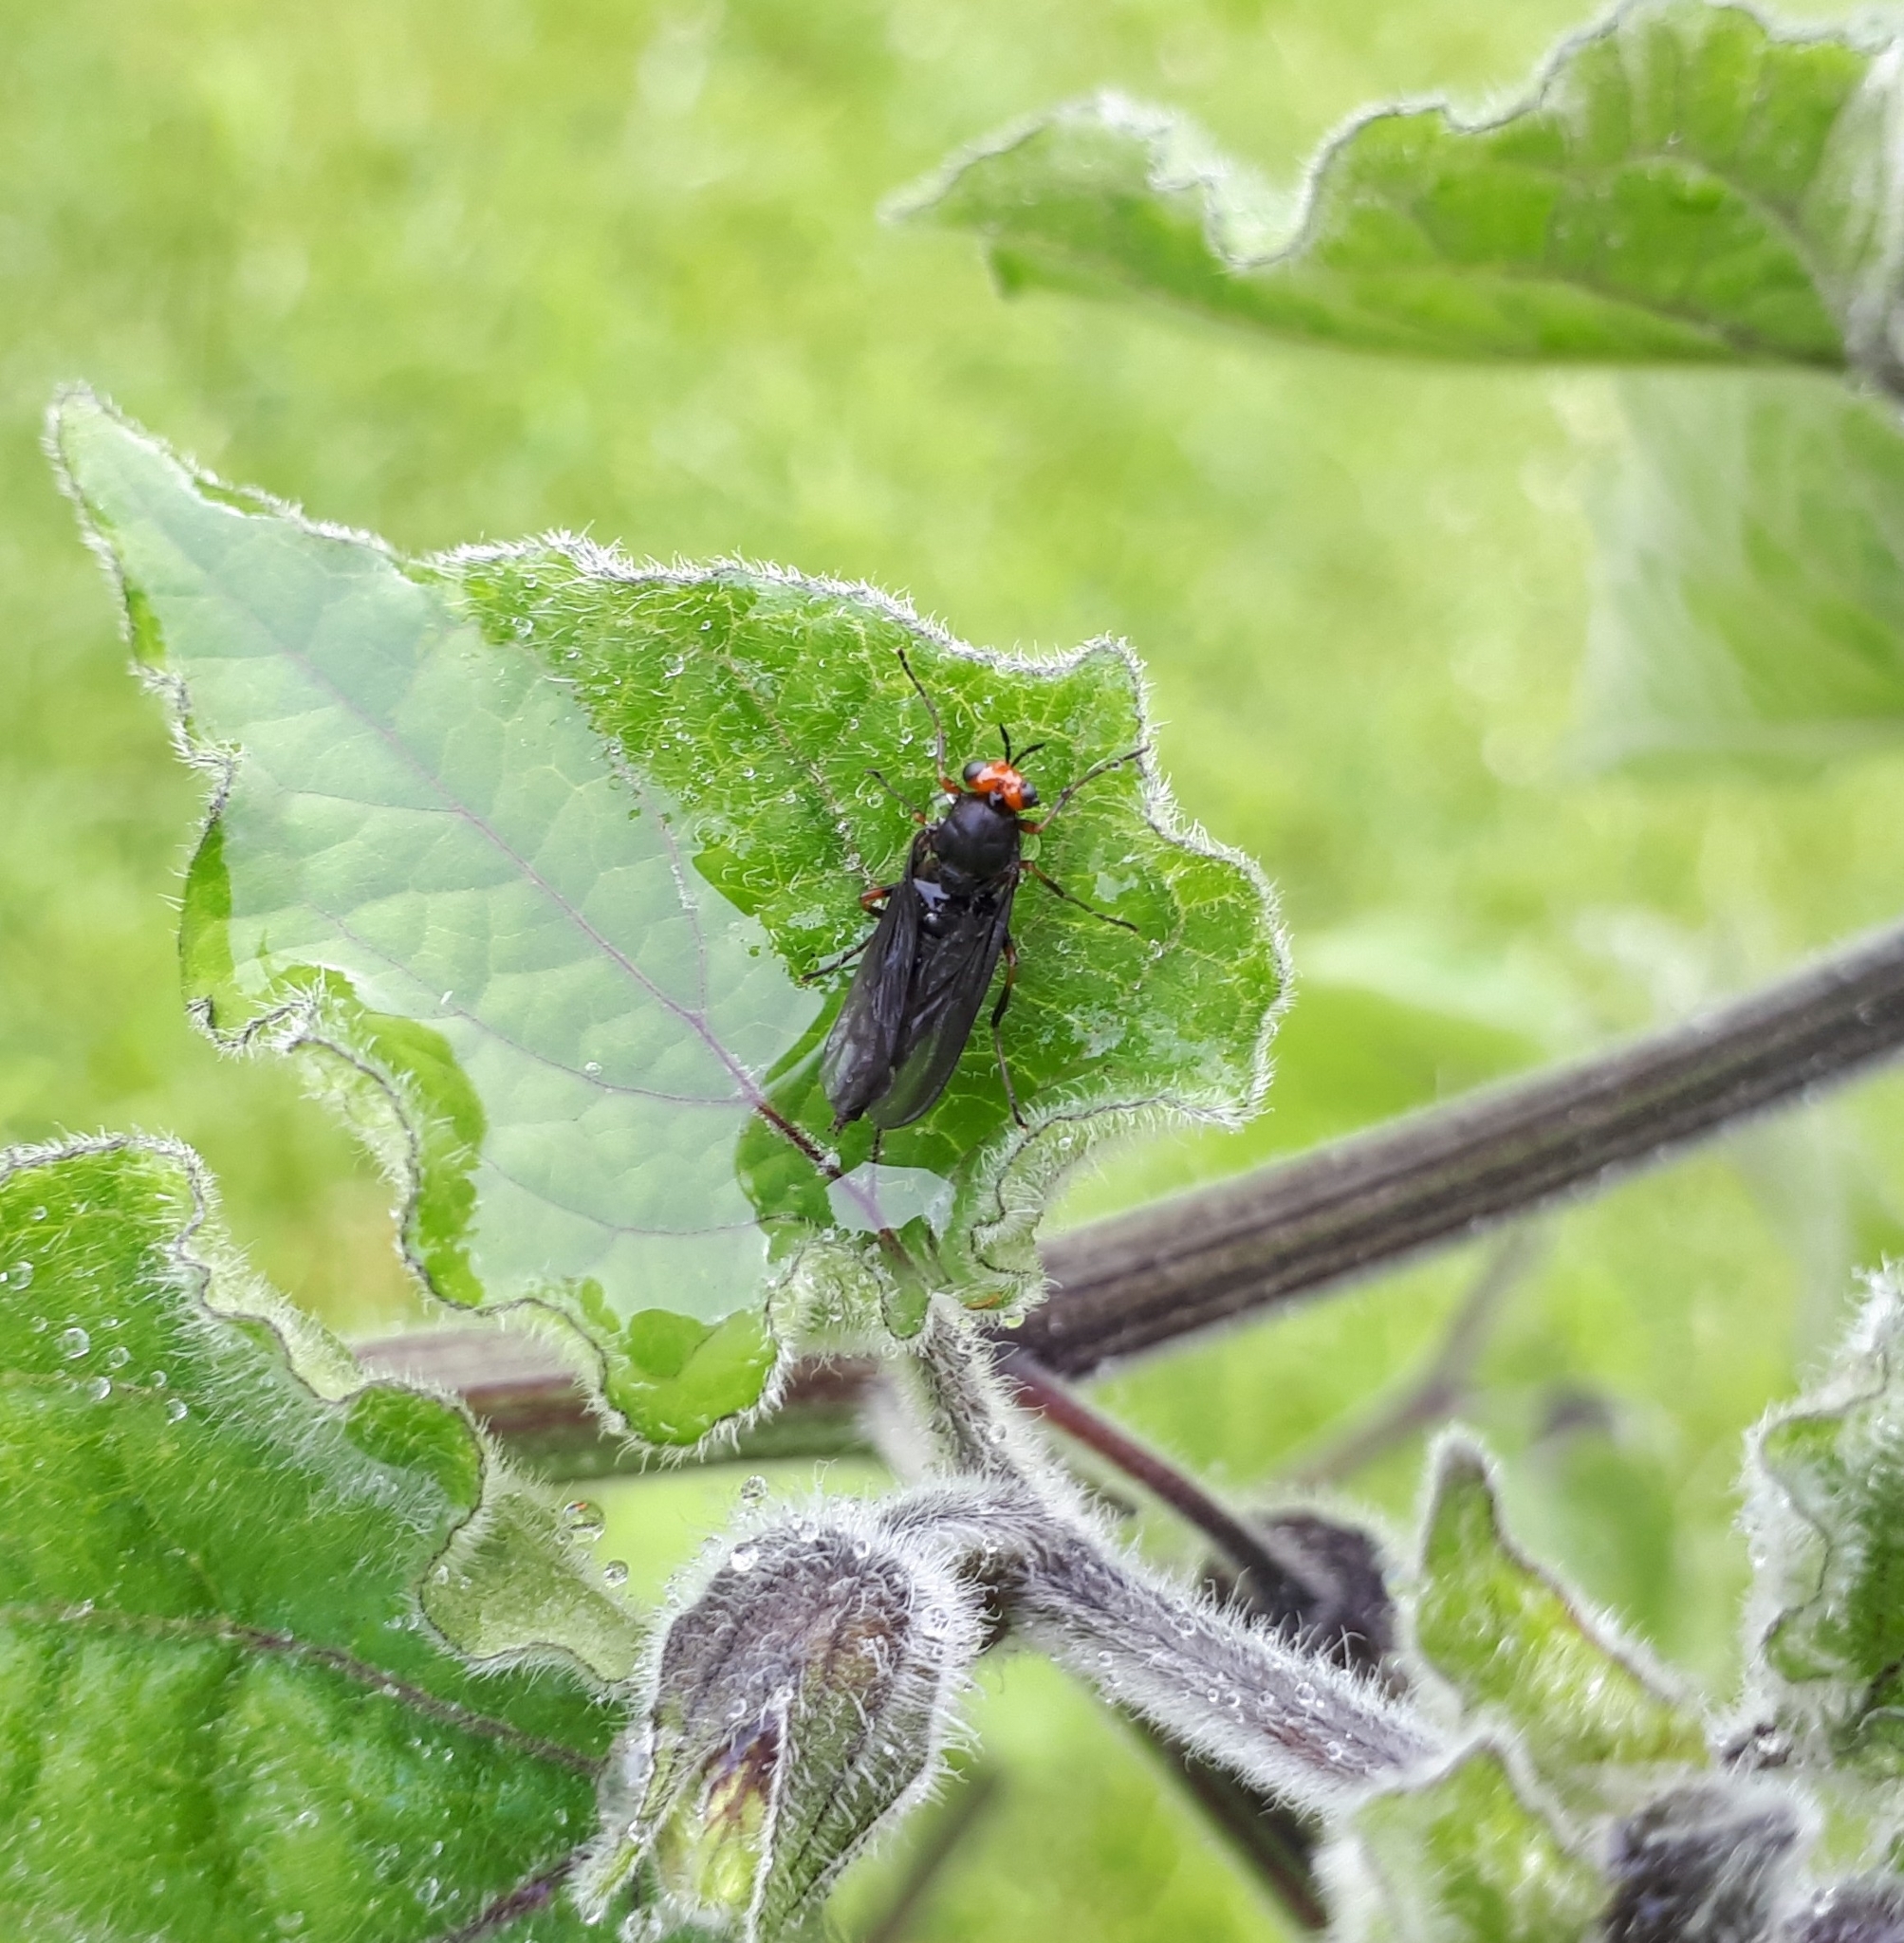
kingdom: Animalia
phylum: Arthropoda
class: Insecta
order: Diptera
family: Stratiomyidae
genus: Inopus
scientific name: Inopus rubriceps
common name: Soldier fly
